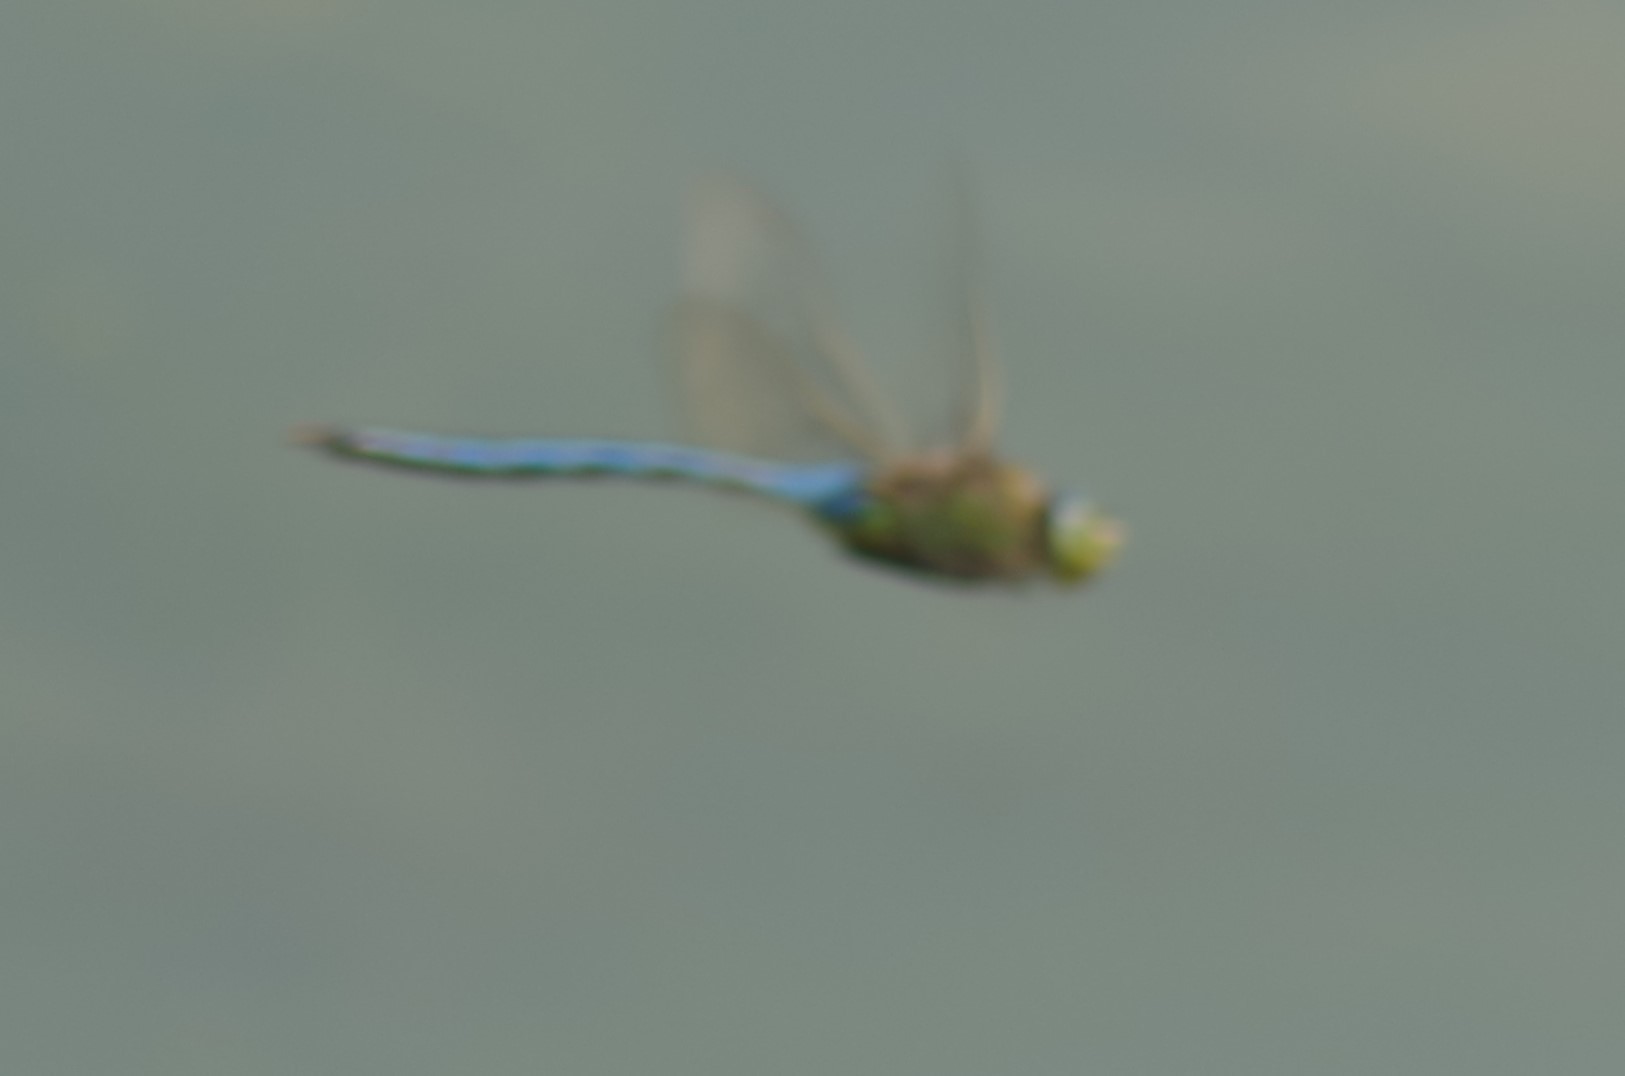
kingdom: Animalia
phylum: Arthropoda
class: Insecta
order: Odonata
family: Aeshnidae
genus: Anax
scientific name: Anax imperator
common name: Emperor dragonfly
